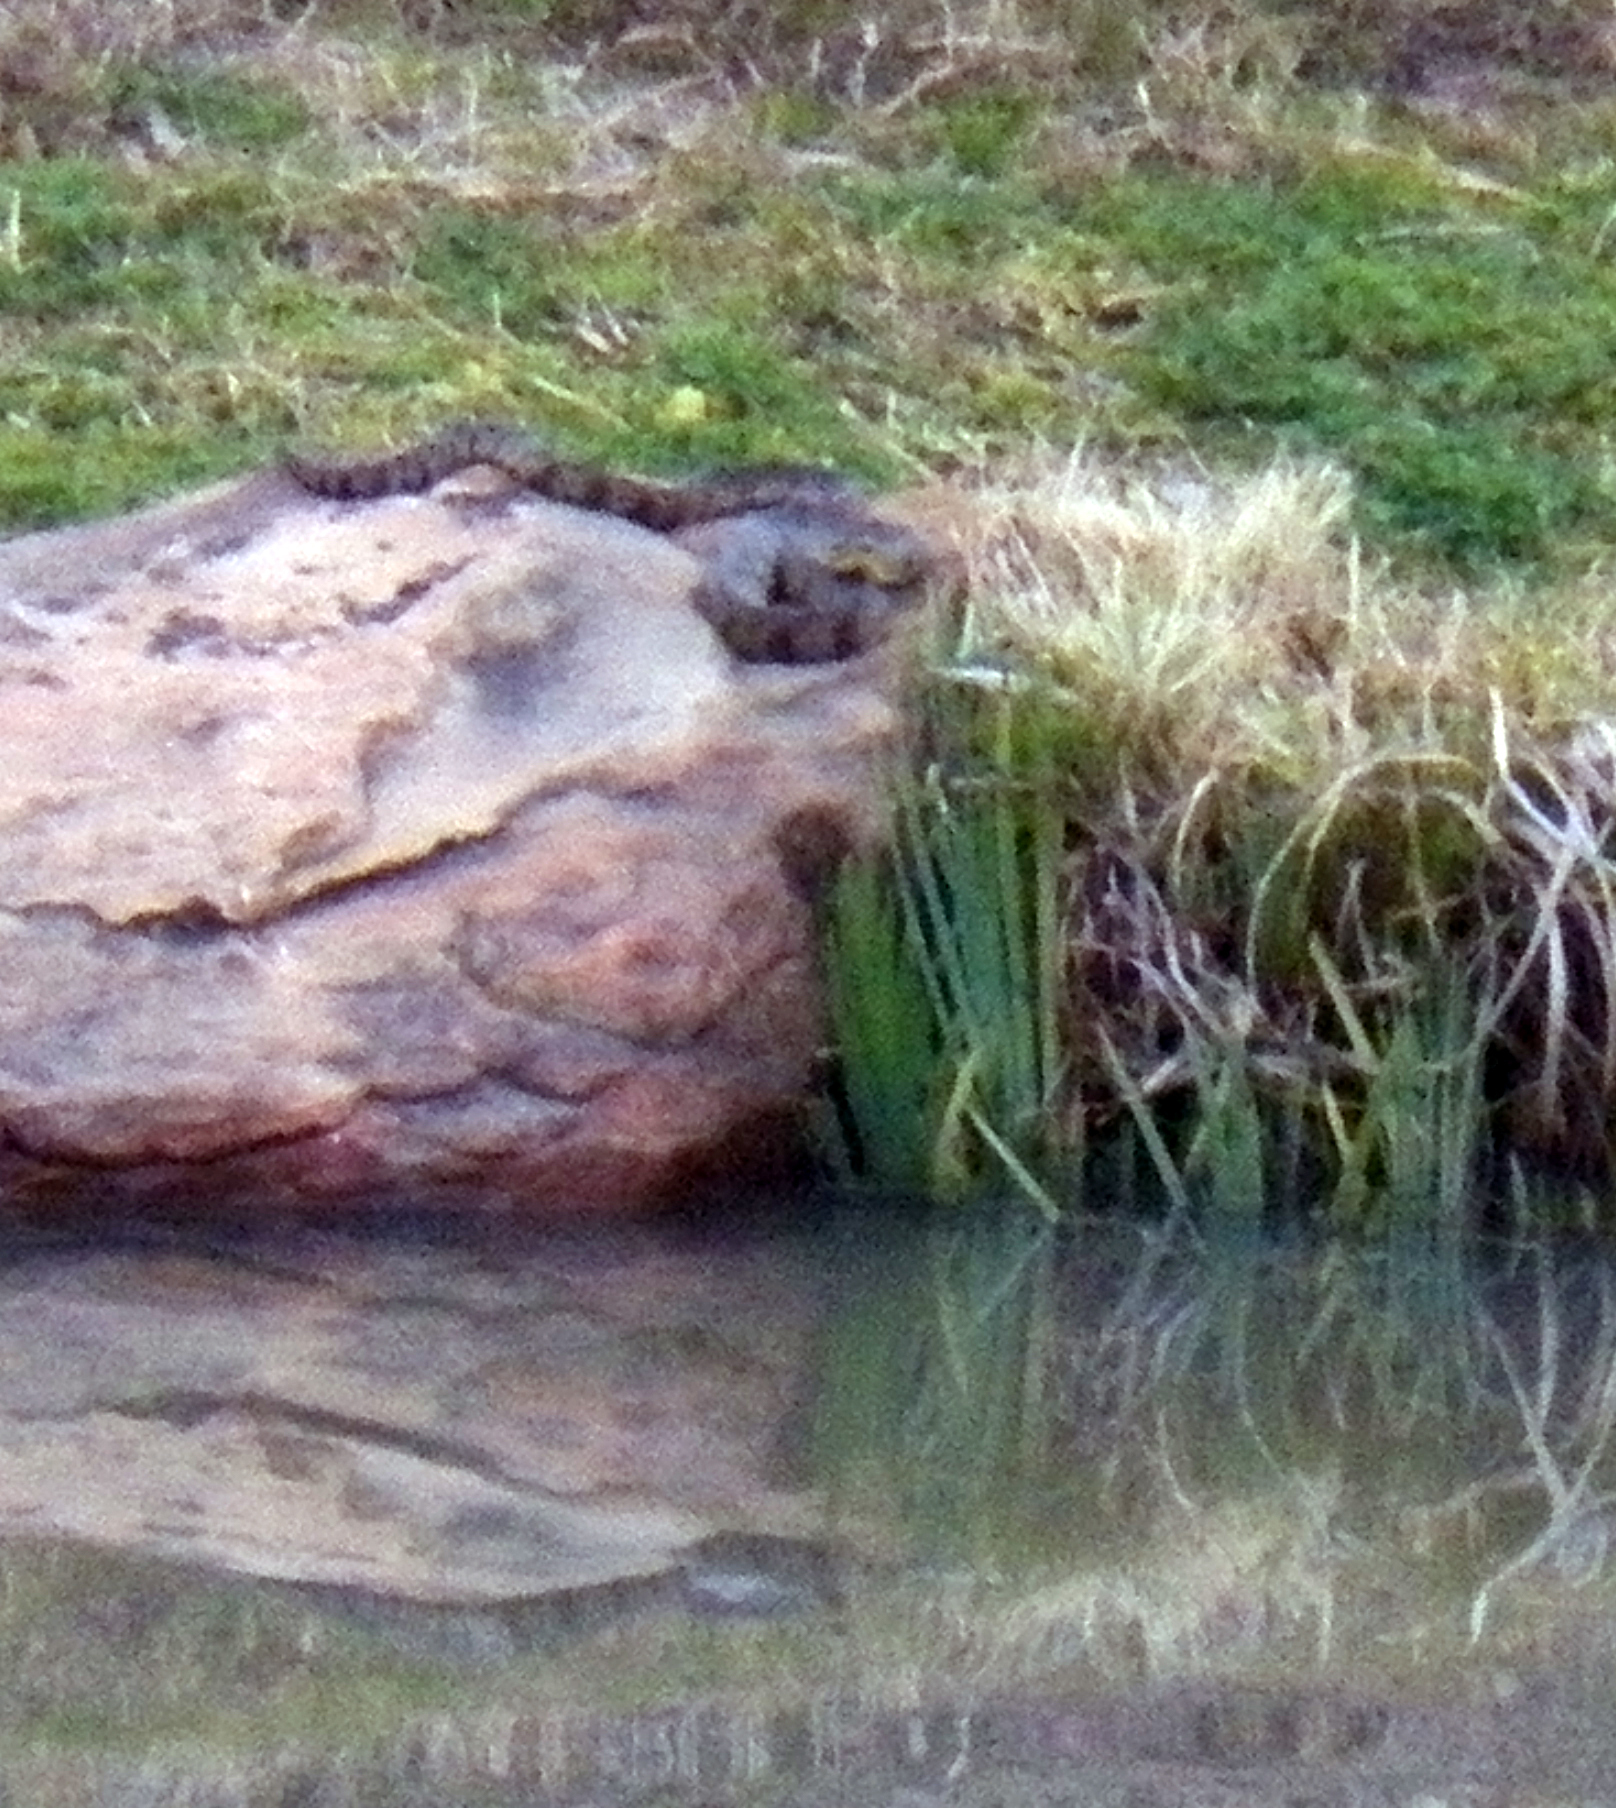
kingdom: Animalia
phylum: Chordata
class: Squamata
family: Colubridae
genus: Nerodia
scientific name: Nerodia rhombifer
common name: Diamondback water snake
